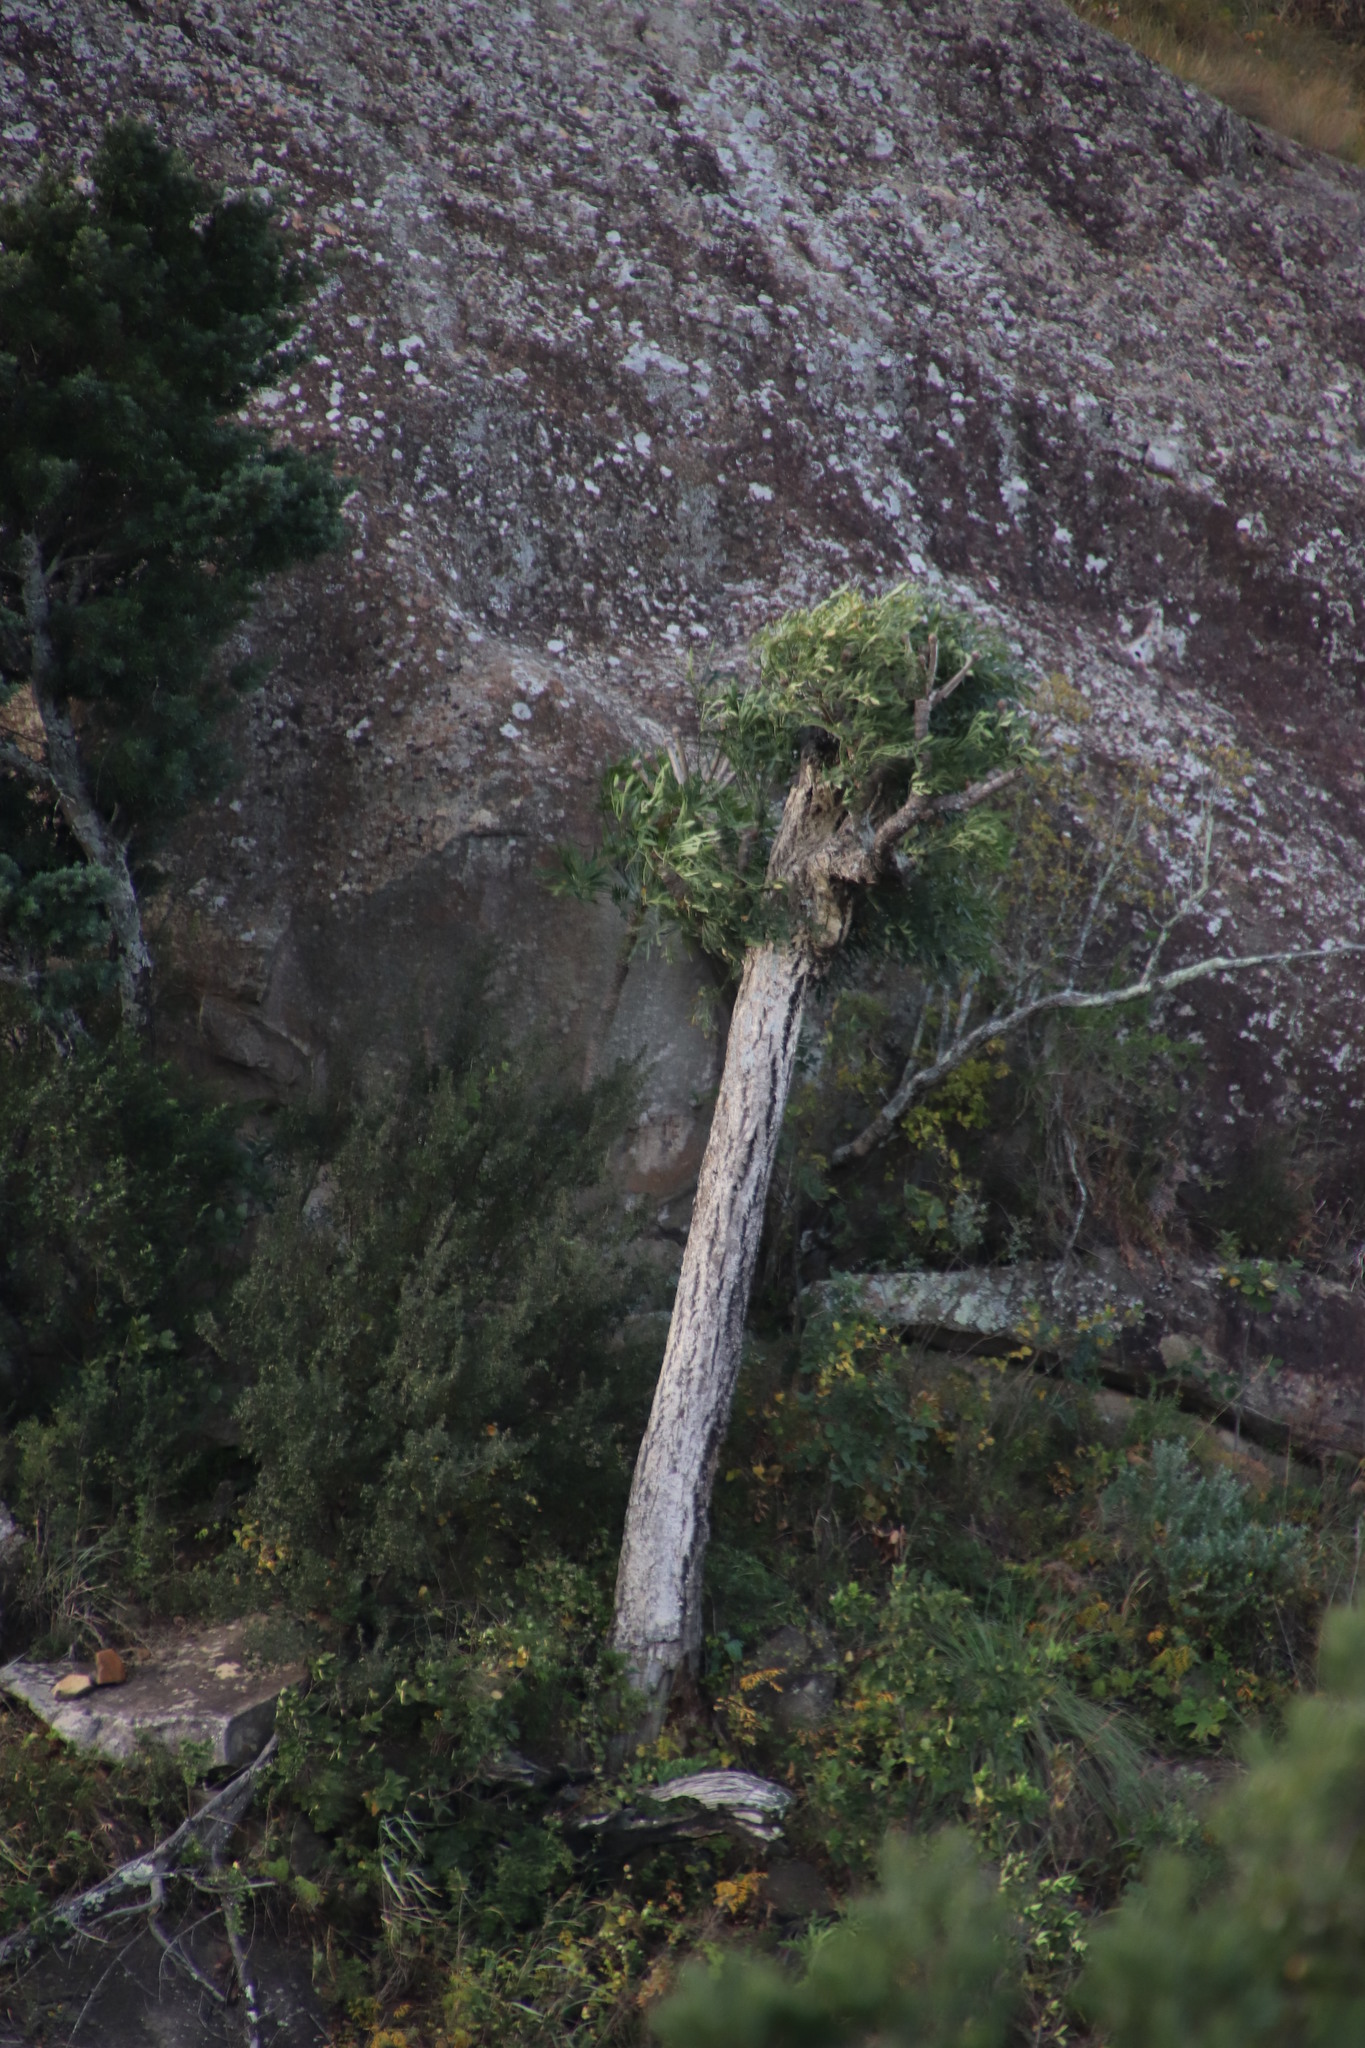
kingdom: Plantae
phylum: Tracheophyta
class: Magnoliopsida
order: Apiales
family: Araliaceae
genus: Cussonia
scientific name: Cussonia spicata
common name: Common cabbagetree
